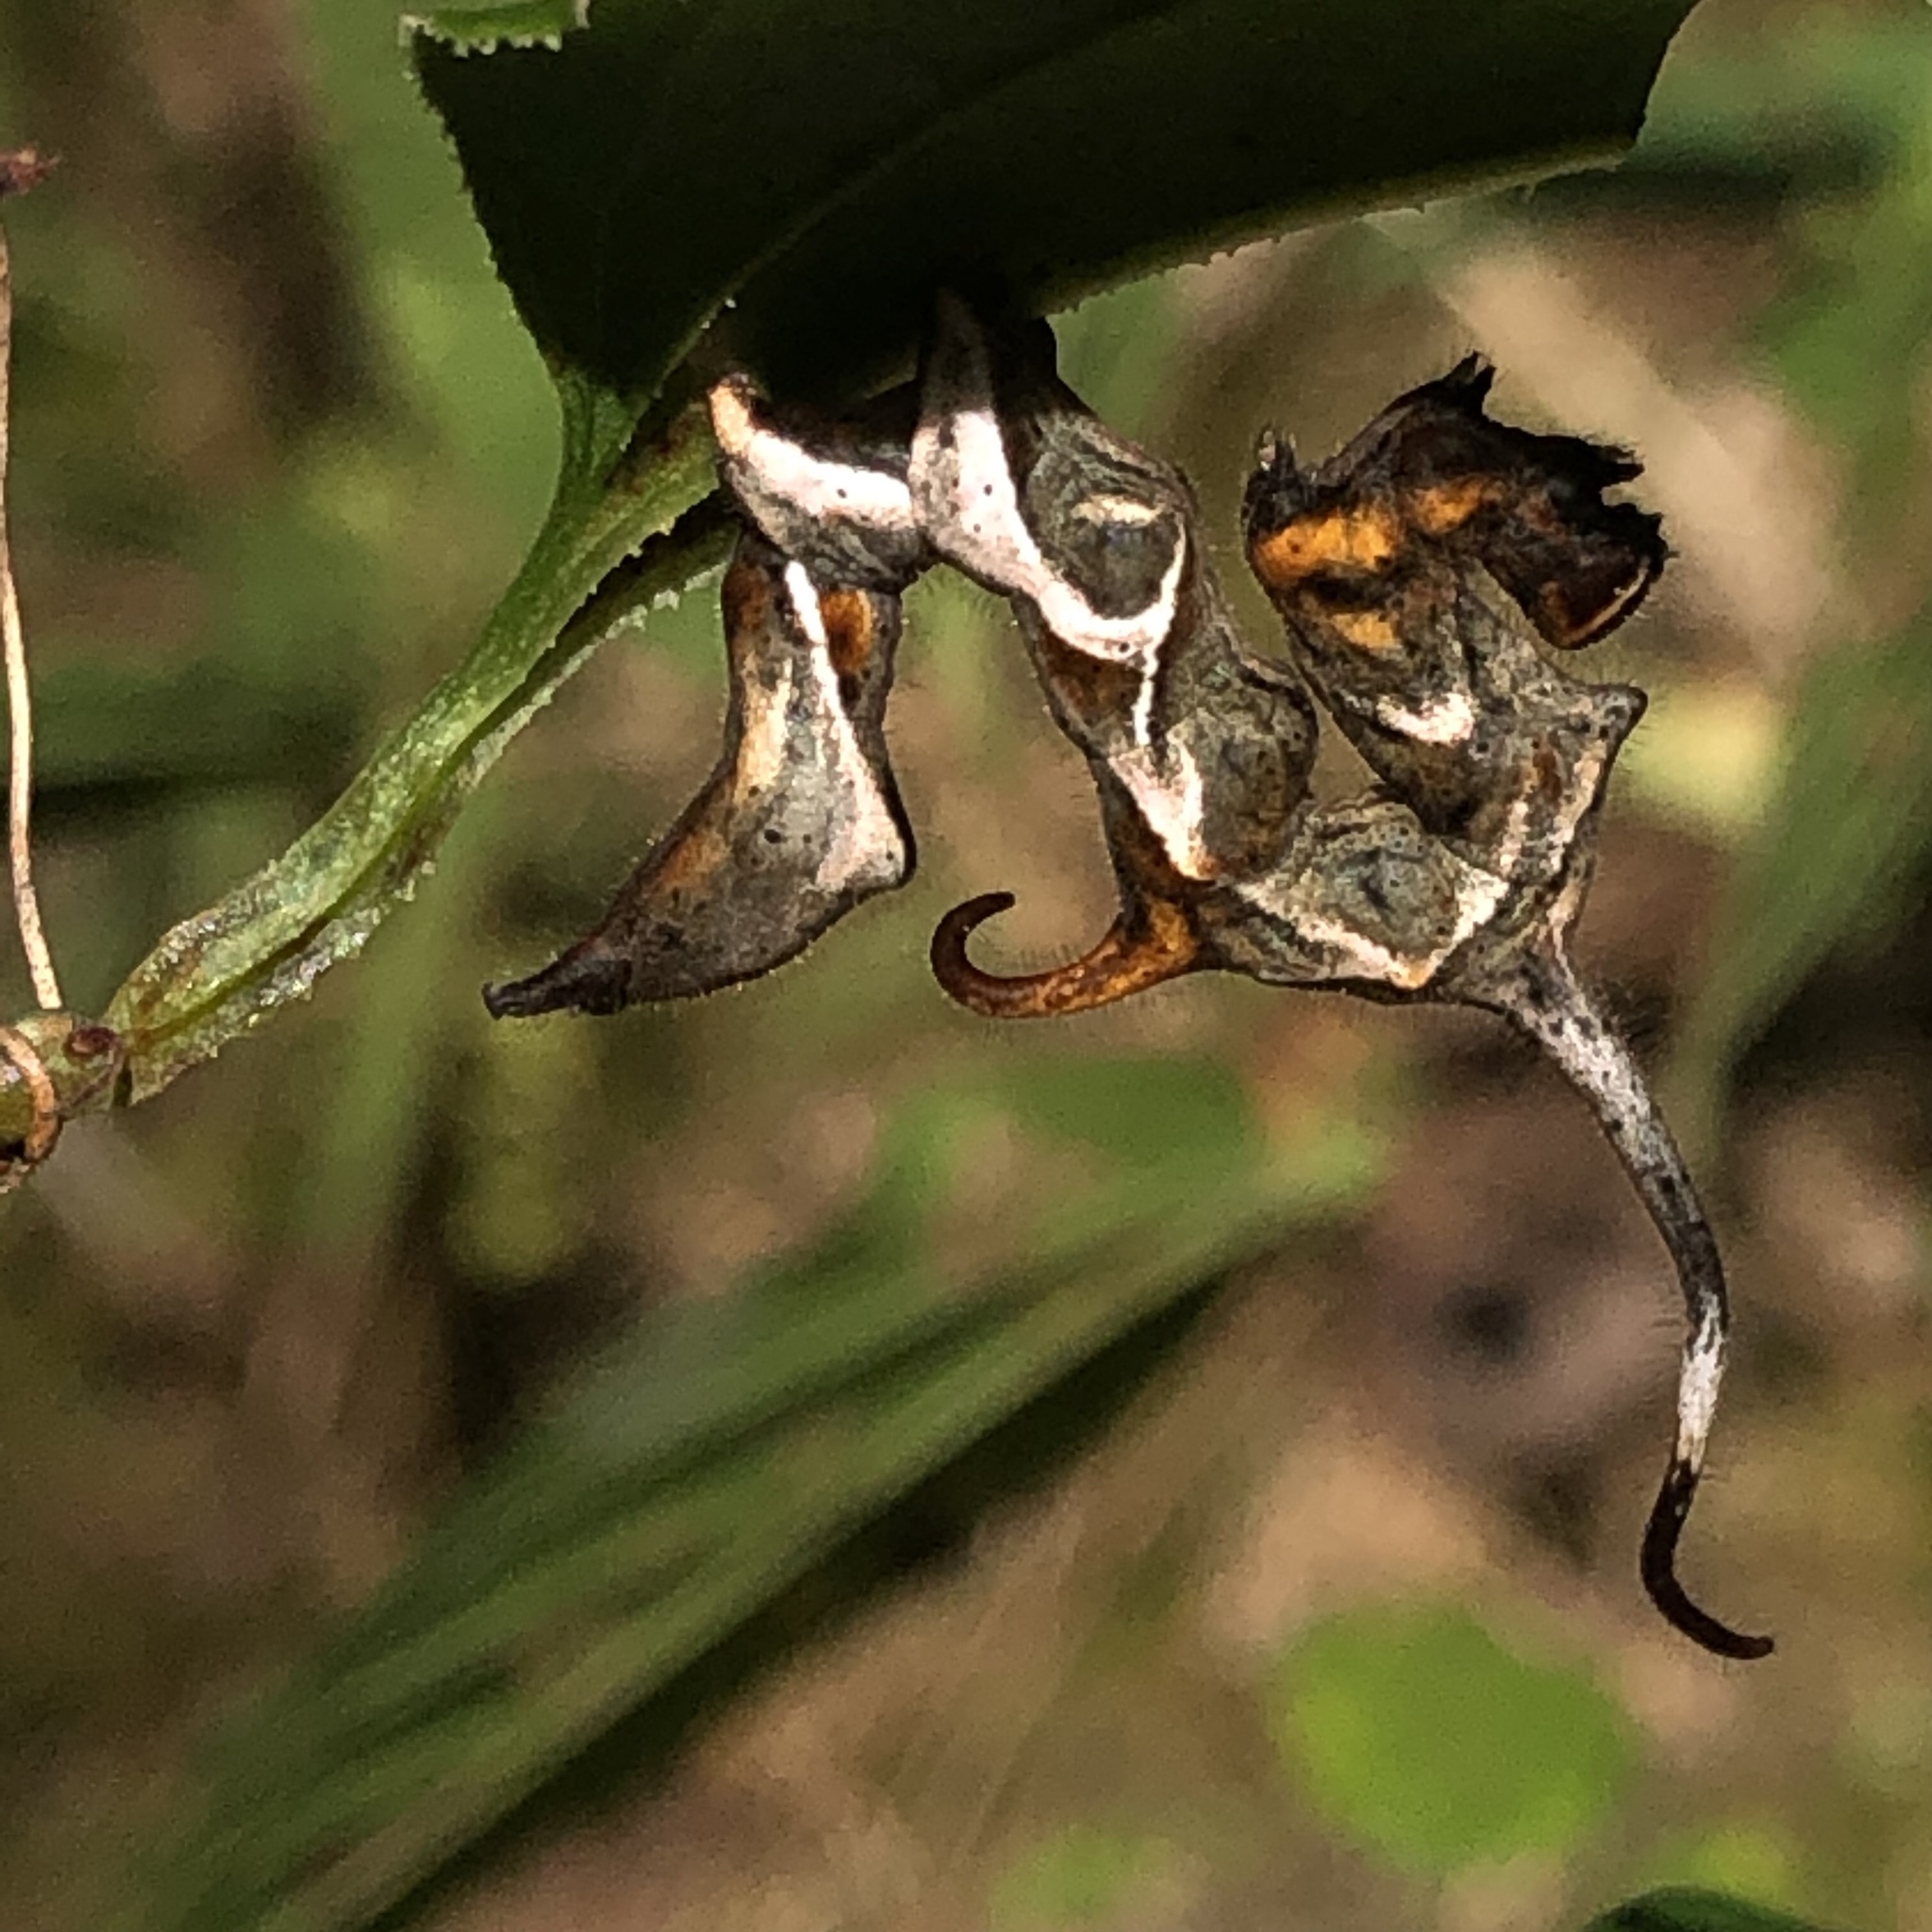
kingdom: Animalia
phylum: Arthropoda
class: Insecta
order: Lepidoptera
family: Erebidae
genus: Phyprosopus
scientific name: Phyprosopus callitrichoides
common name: Curved-lined owlet
